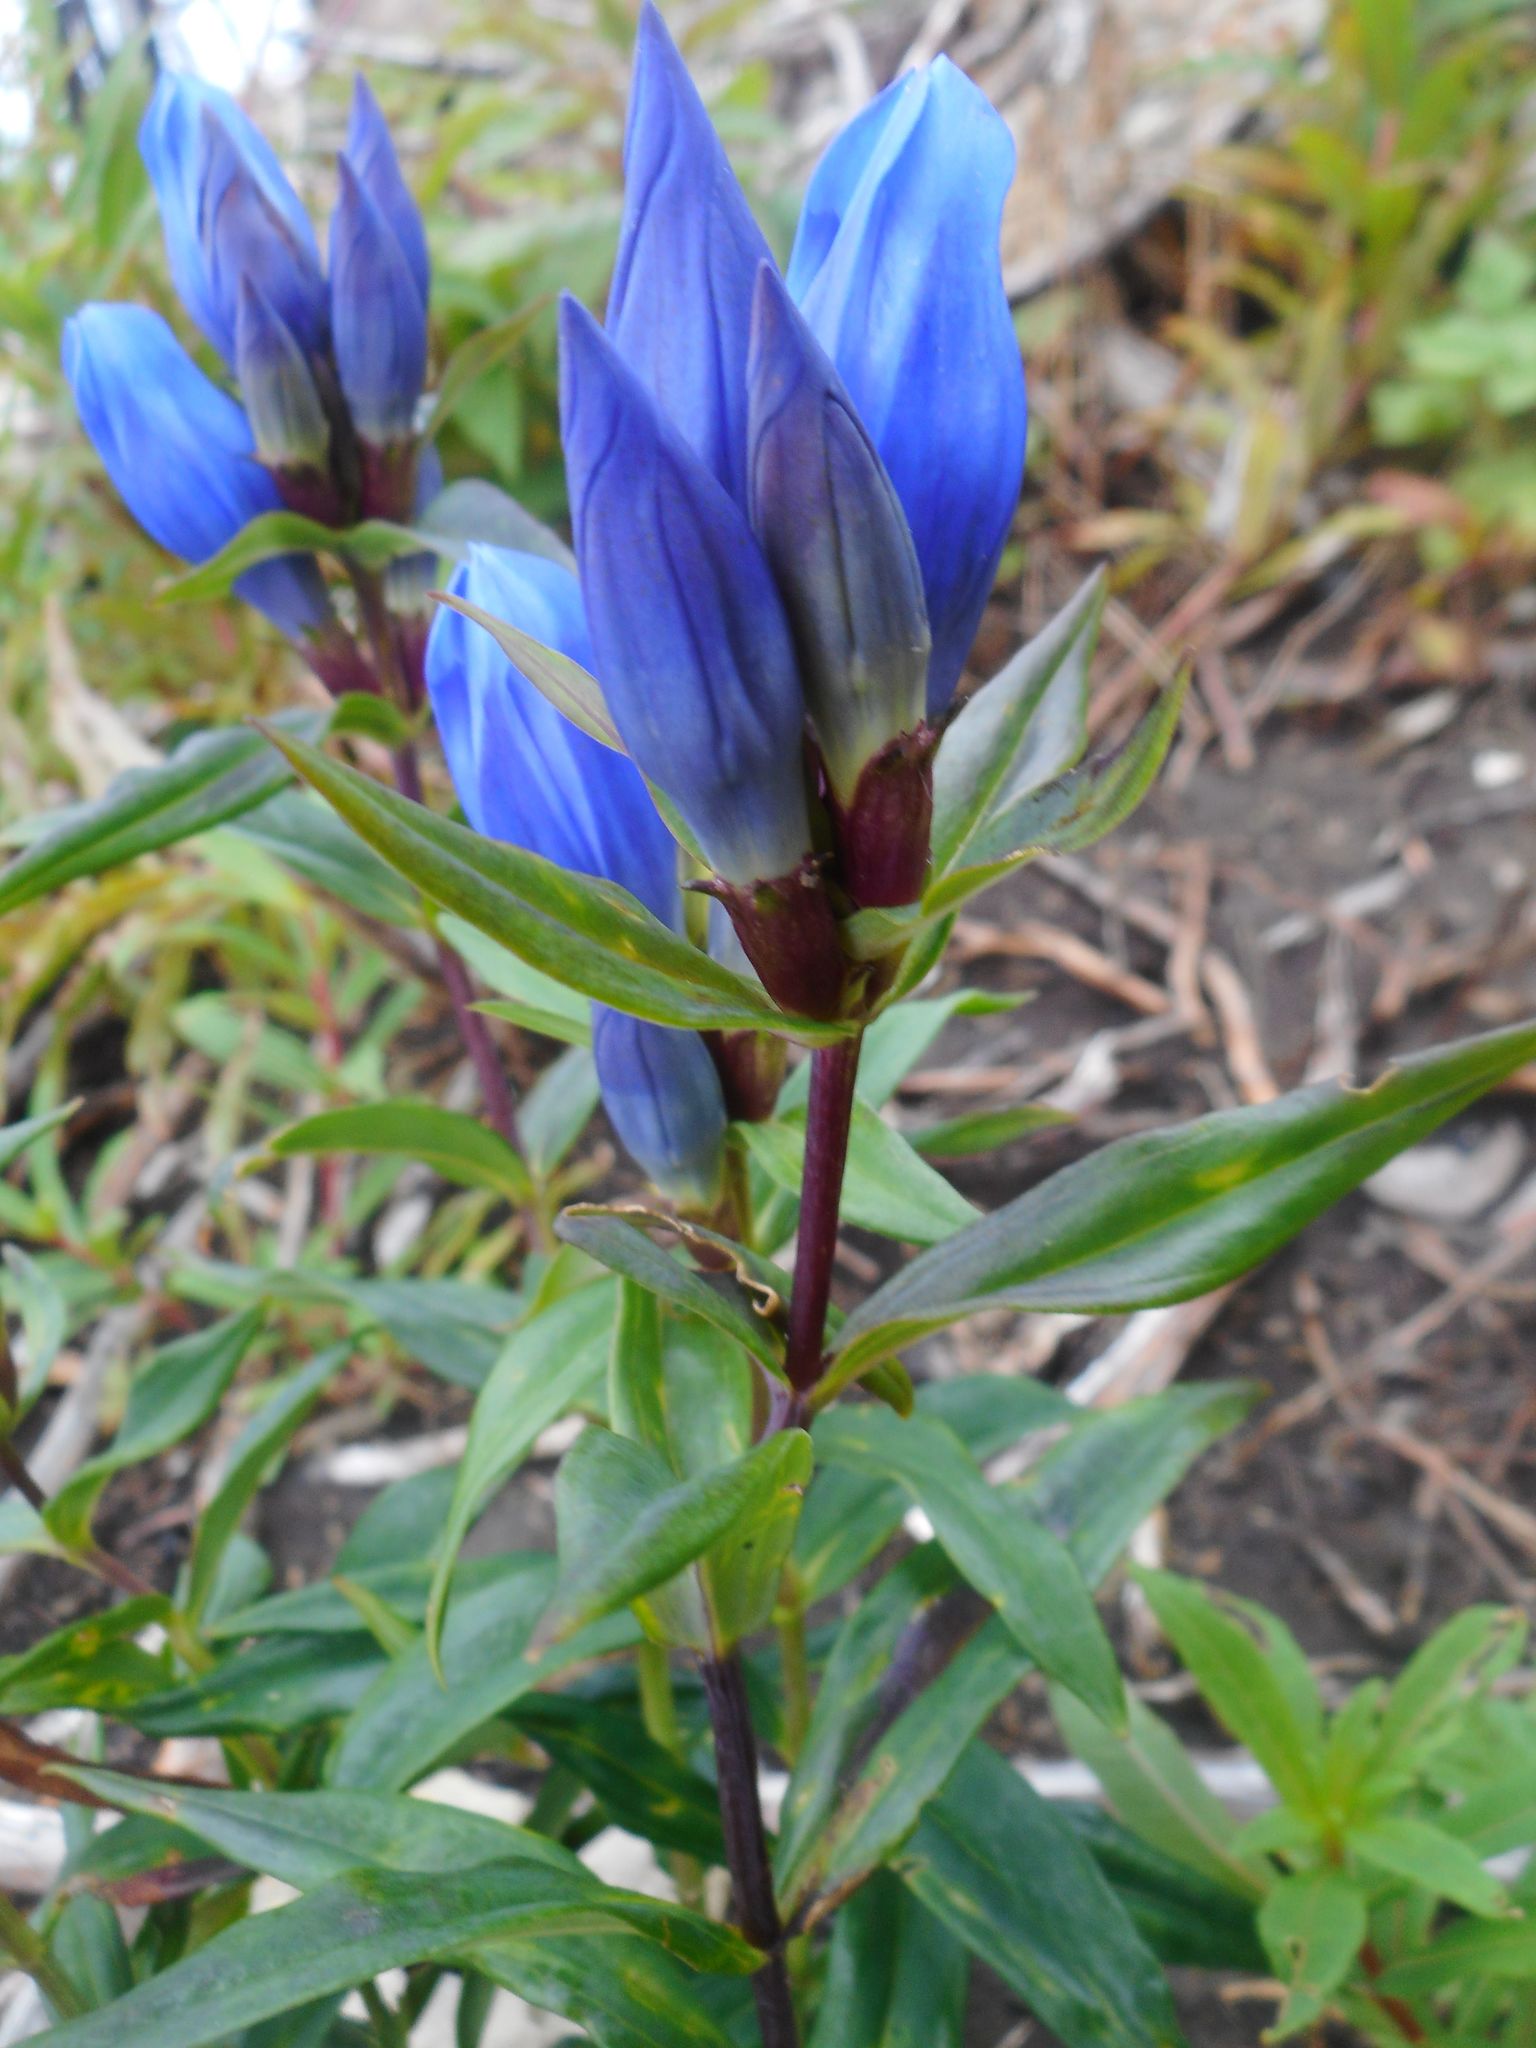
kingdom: Plantae
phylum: Tracheophyta
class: Magnoliopsida
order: Gentianales
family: Gentianaceae
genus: Gentiana
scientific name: Gentiana triflora
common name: Three-flower gentian
